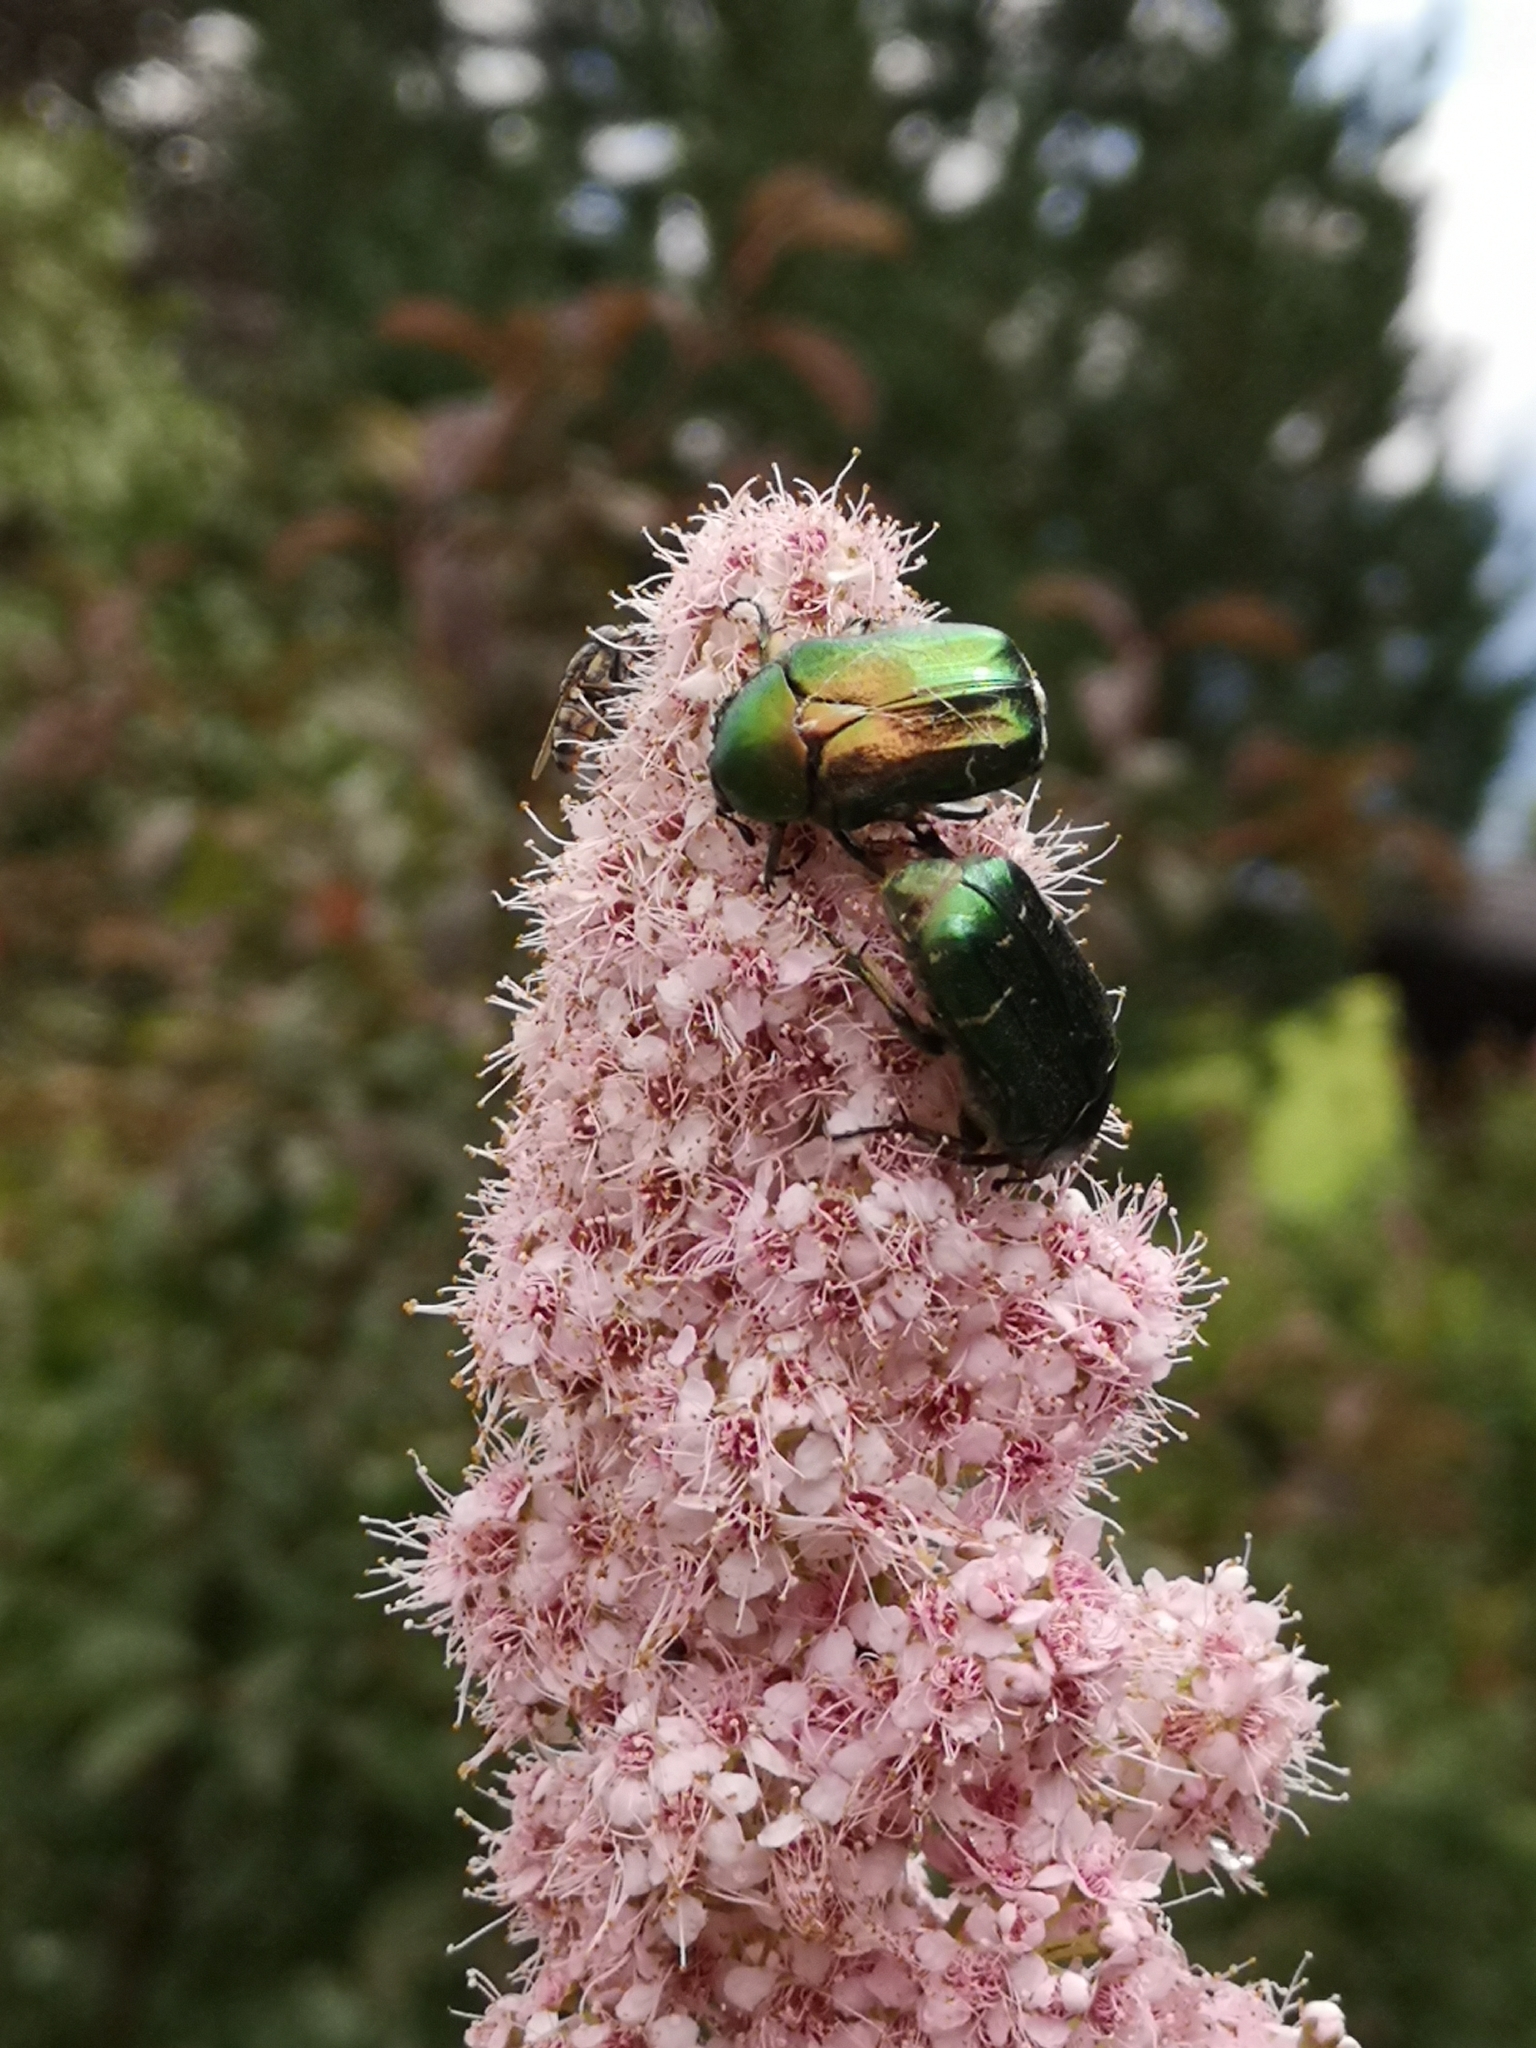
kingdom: Animalia
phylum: Arthropoda
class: Insecta
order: Coleoptera
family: Scarabaeidae
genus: Cetonia
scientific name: Cetonia aurata
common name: Rose chafer
